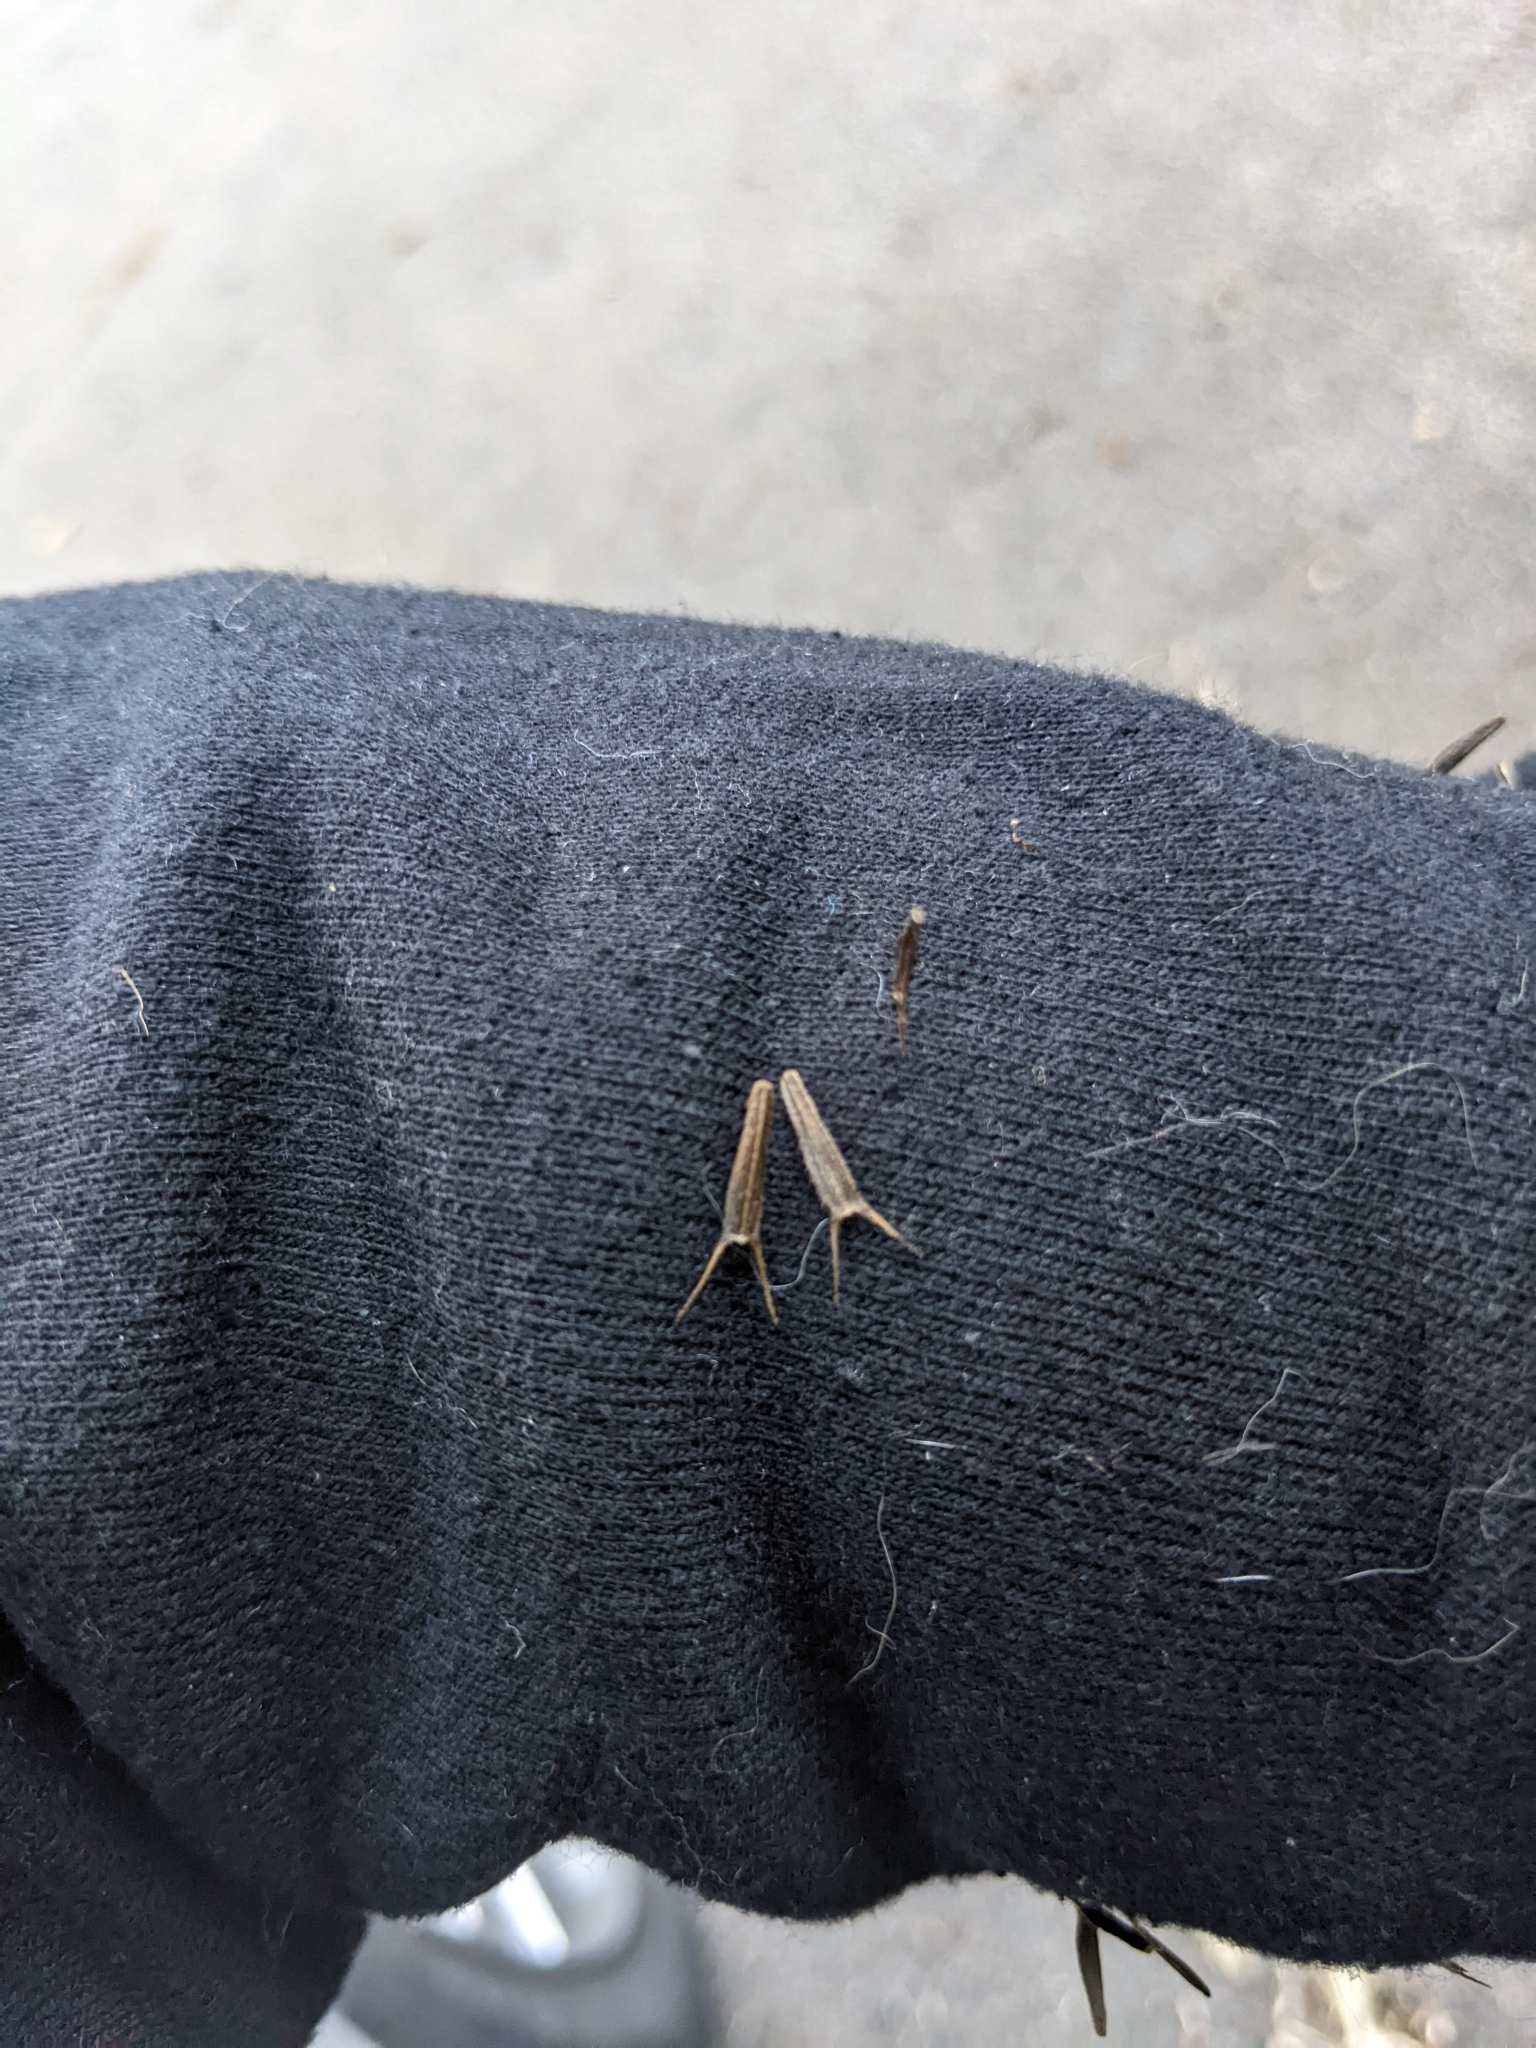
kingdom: Plantae
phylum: Tracheophyta
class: Magnoliopsida
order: Asterales
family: Asteraceae
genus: Bidens
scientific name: Bidens
